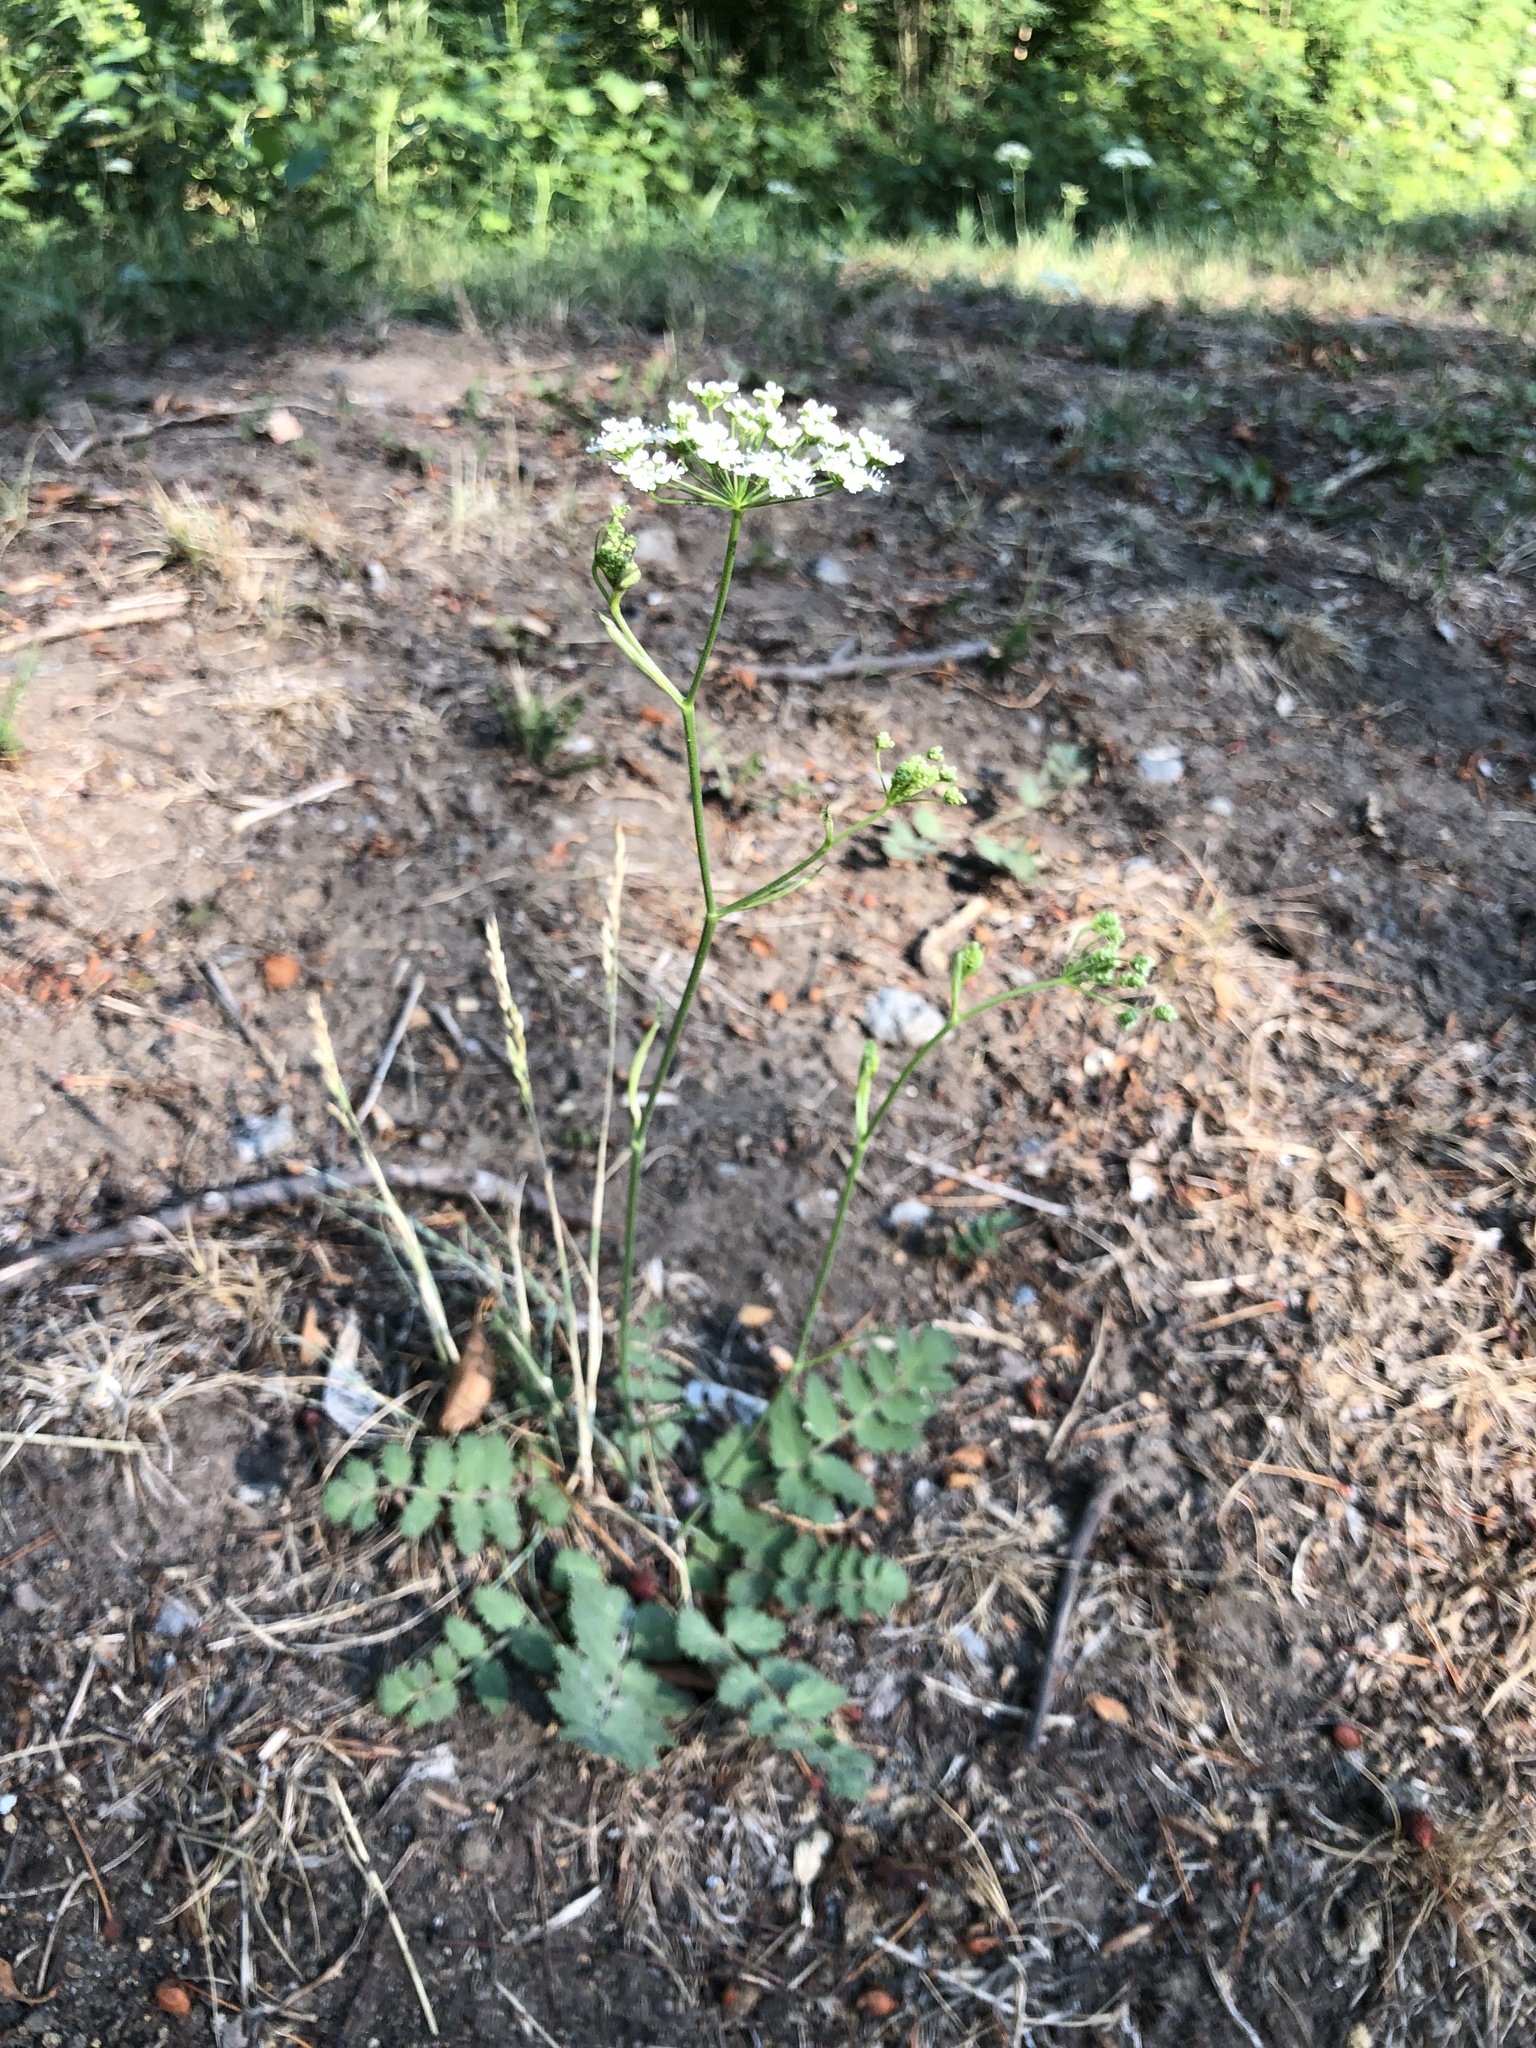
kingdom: Plantae
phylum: Tracheophyta
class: Magnoliopsida
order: Apiales
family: Apiaceae
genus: Pimpinella
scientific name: Pimpinella saxifraga
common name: Burnet-saxifrage
